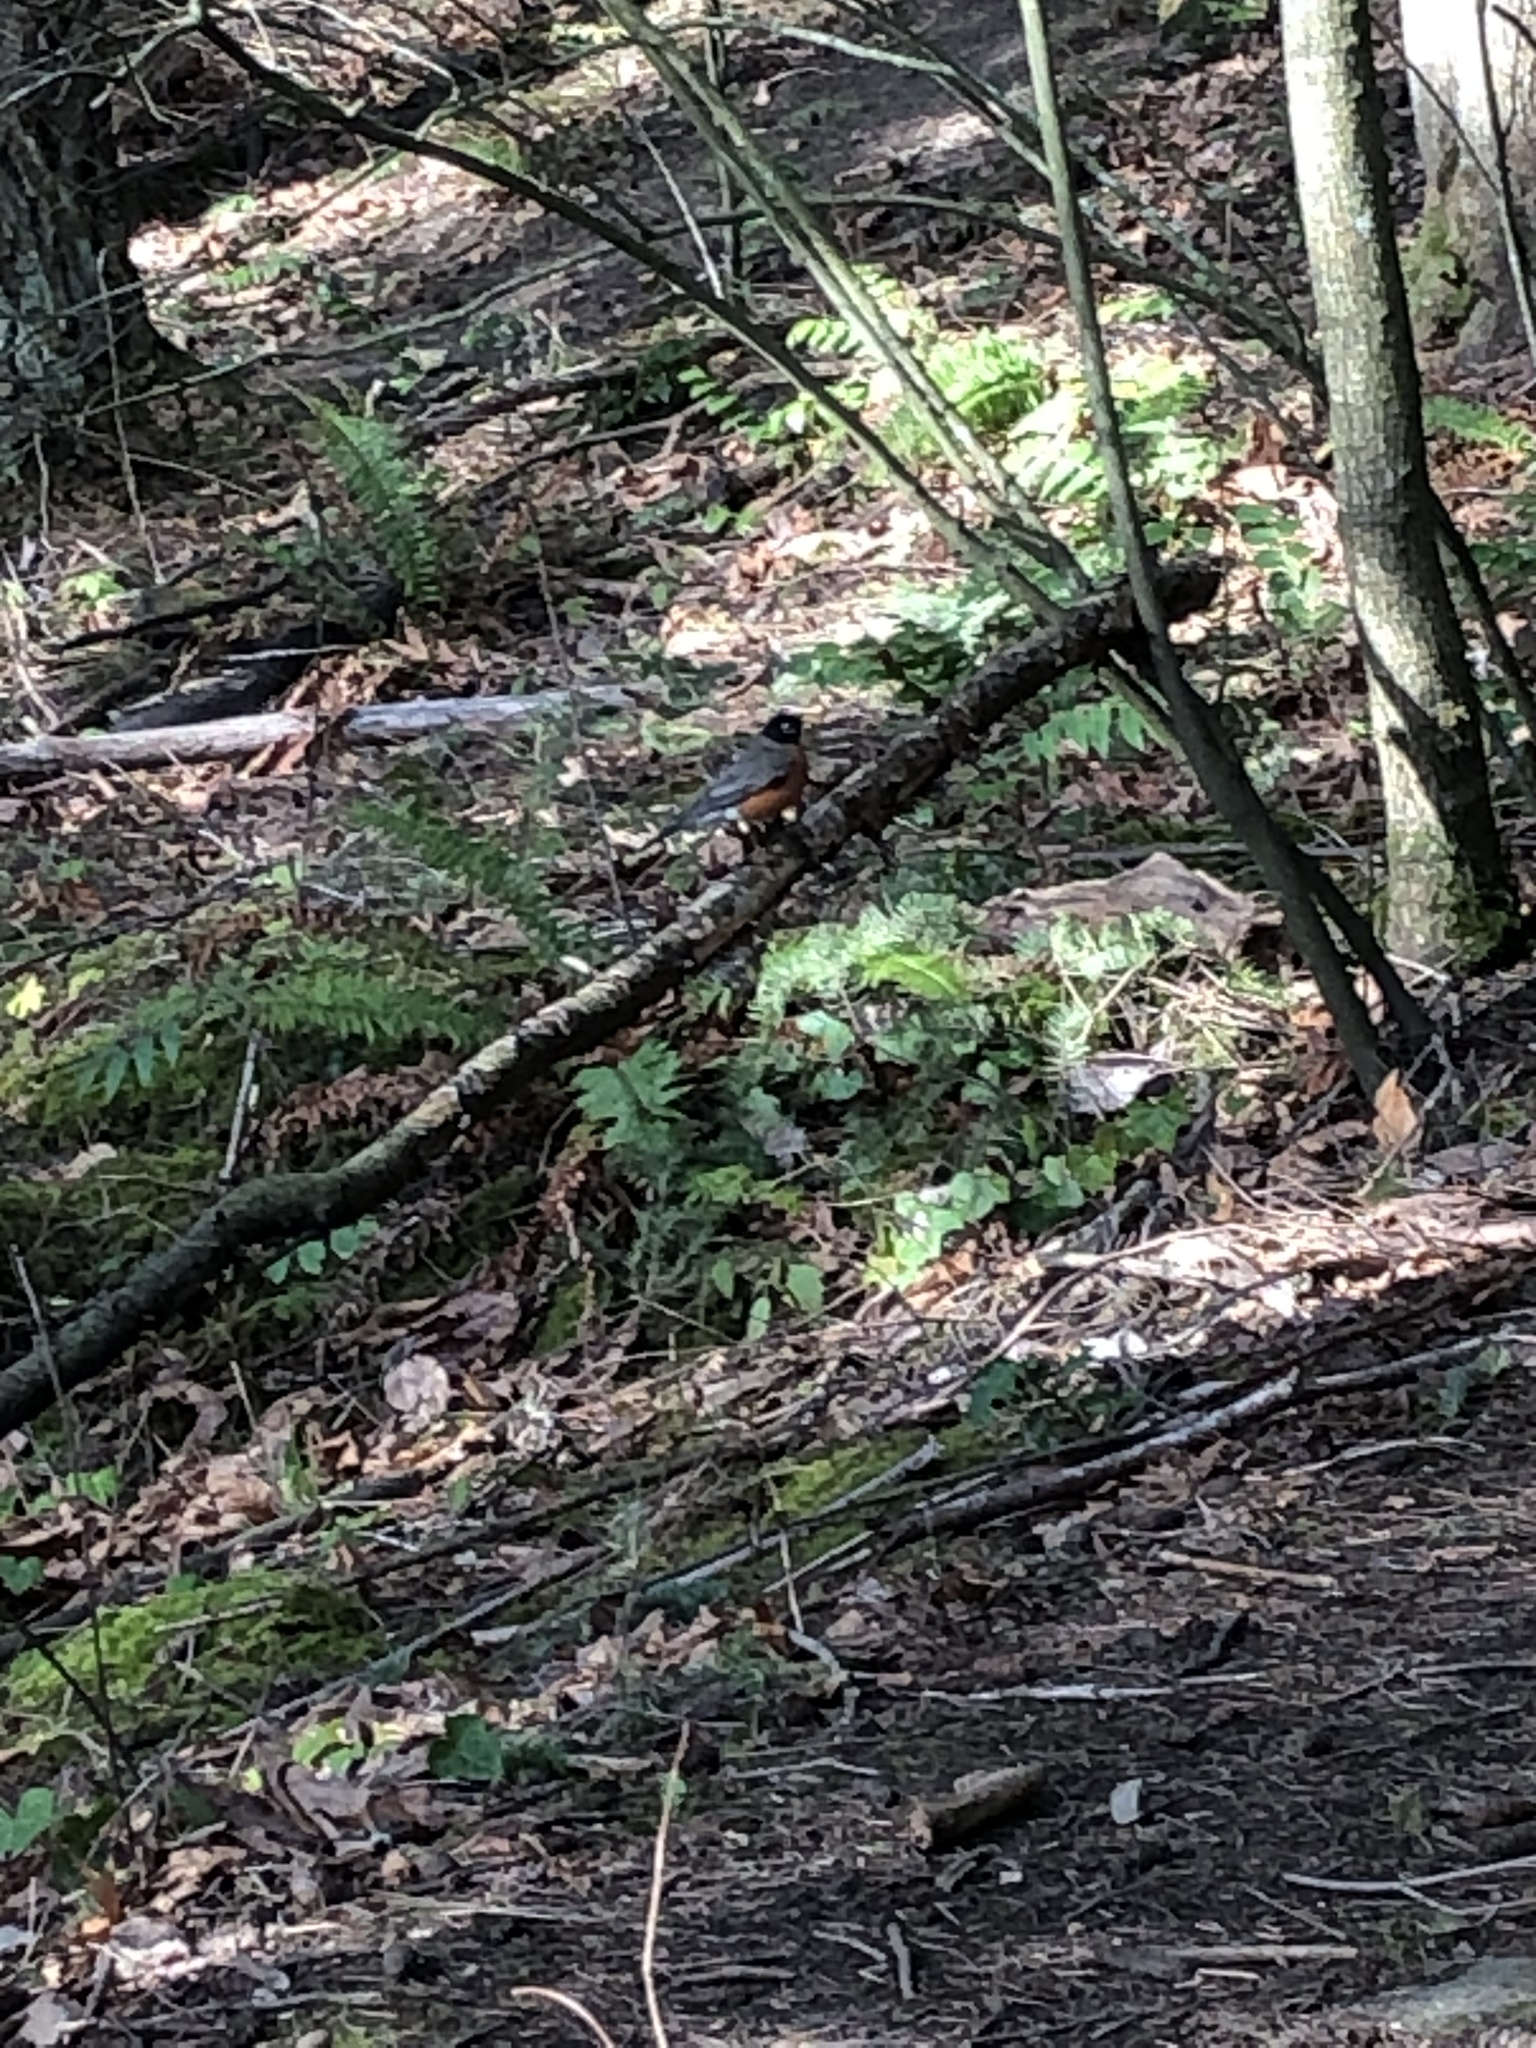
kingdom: Animalia
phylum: Chordata
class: Aves
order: Passeriformes
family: Turdidae
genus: Turdus
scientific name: Turdus migratorius
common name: American robin
